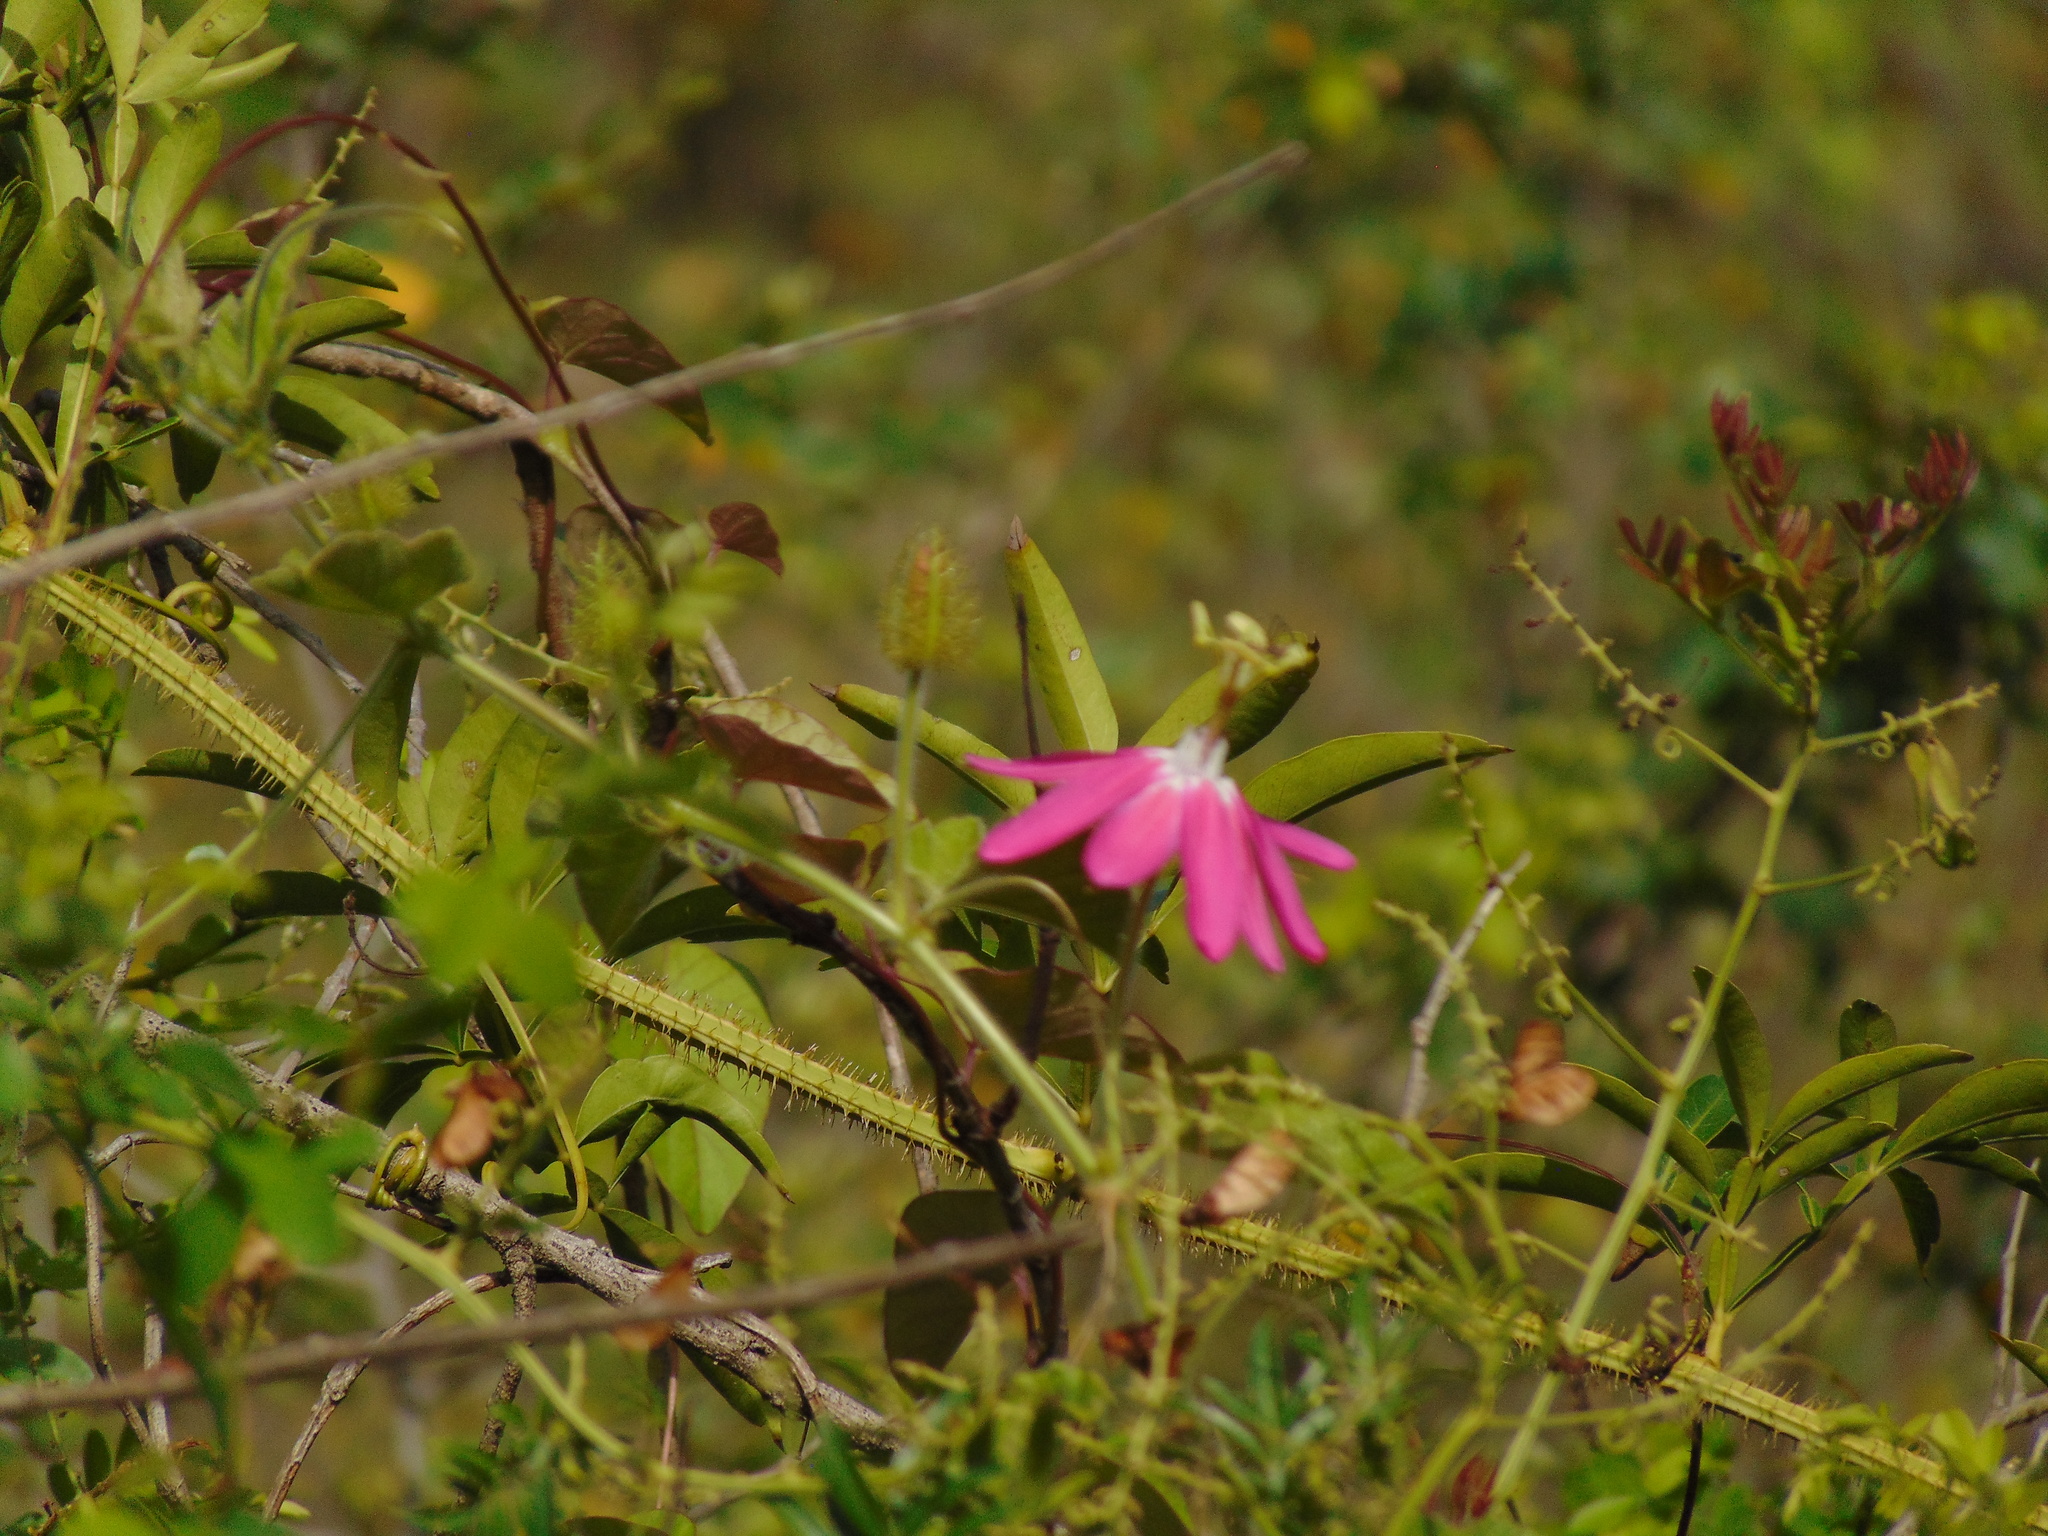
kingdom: Plantae
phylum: Tracheophyta
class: Magnoliopsida
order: Malpighiales
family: Passifloraceae
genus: Passiflora
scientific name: Passiflora sublanceolata
